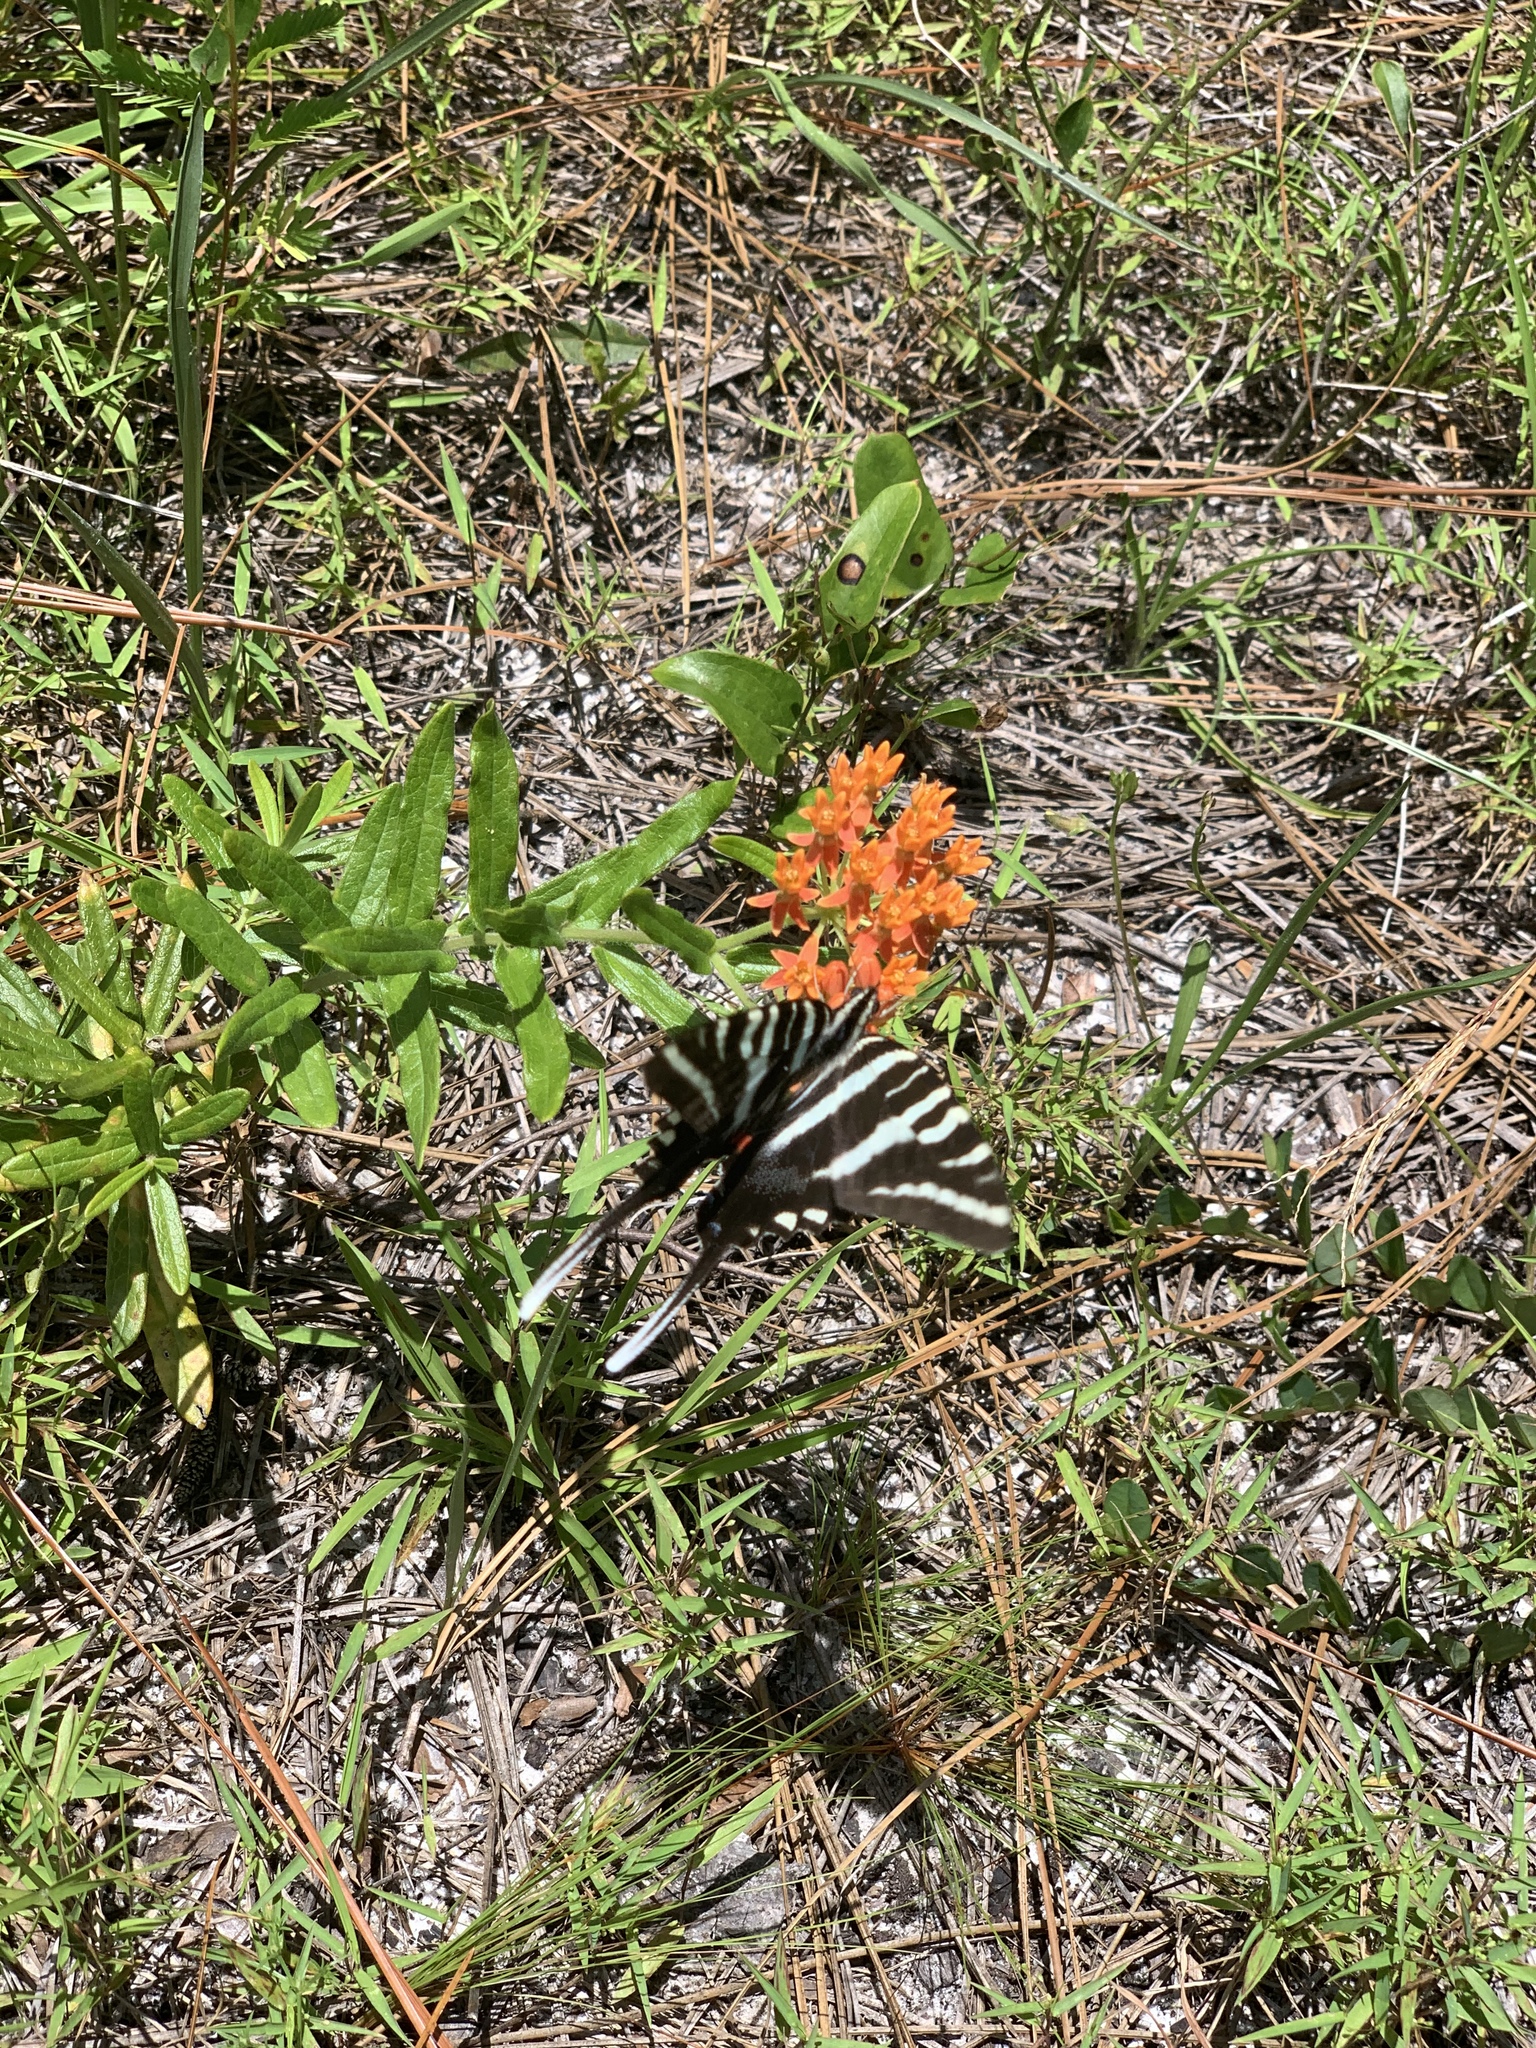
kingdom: Animalia
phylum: Arthropoda
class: Insecta
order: Lepidoptera
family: Papilionidae
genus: Protographium
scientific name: Protographium marcellus
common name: Zebra swallowtail
